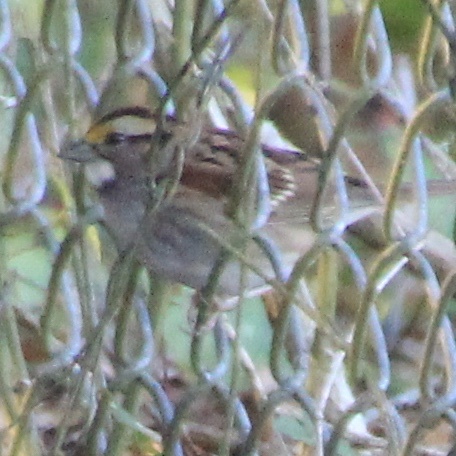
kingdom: Animalia
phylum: Chordata
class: Aves
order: Passeriformes
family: Passerellidae
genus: Zonotrichia
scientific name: Zonotrichia albicollis
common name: White-throated sparrow
